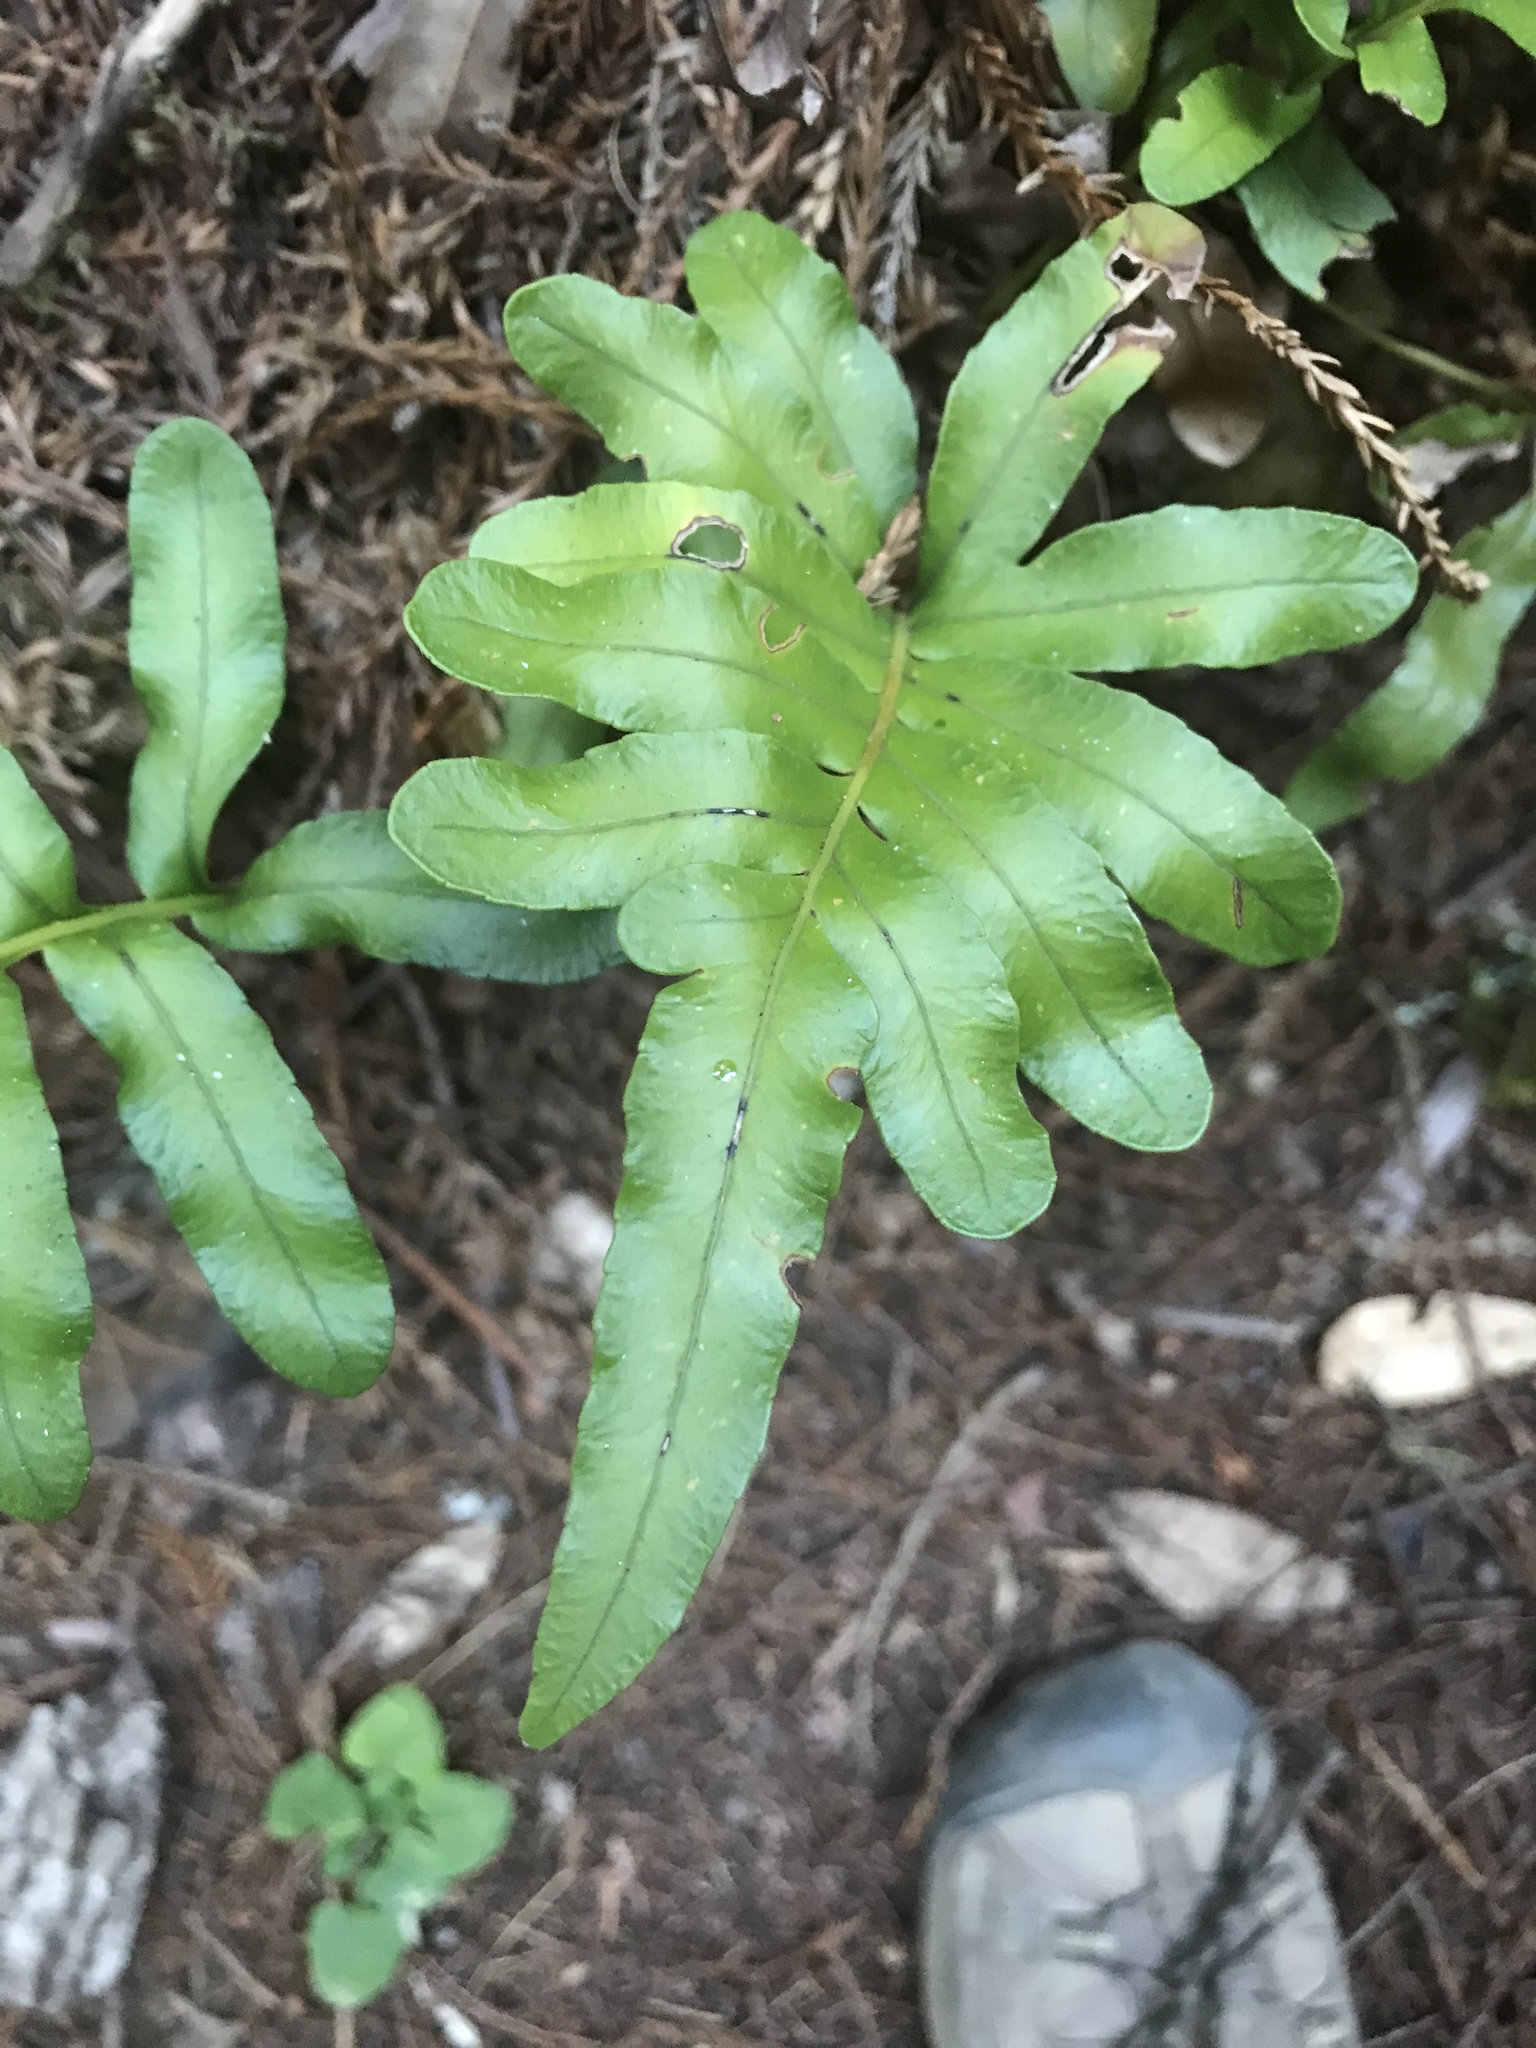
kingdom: Plantae
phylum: Tracheophyta
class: Polypodiopsida
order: Polypodiales
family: Polypodiaceae
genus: Polypodium
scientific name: Polypodium scouleri
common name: Scouler's polypody
